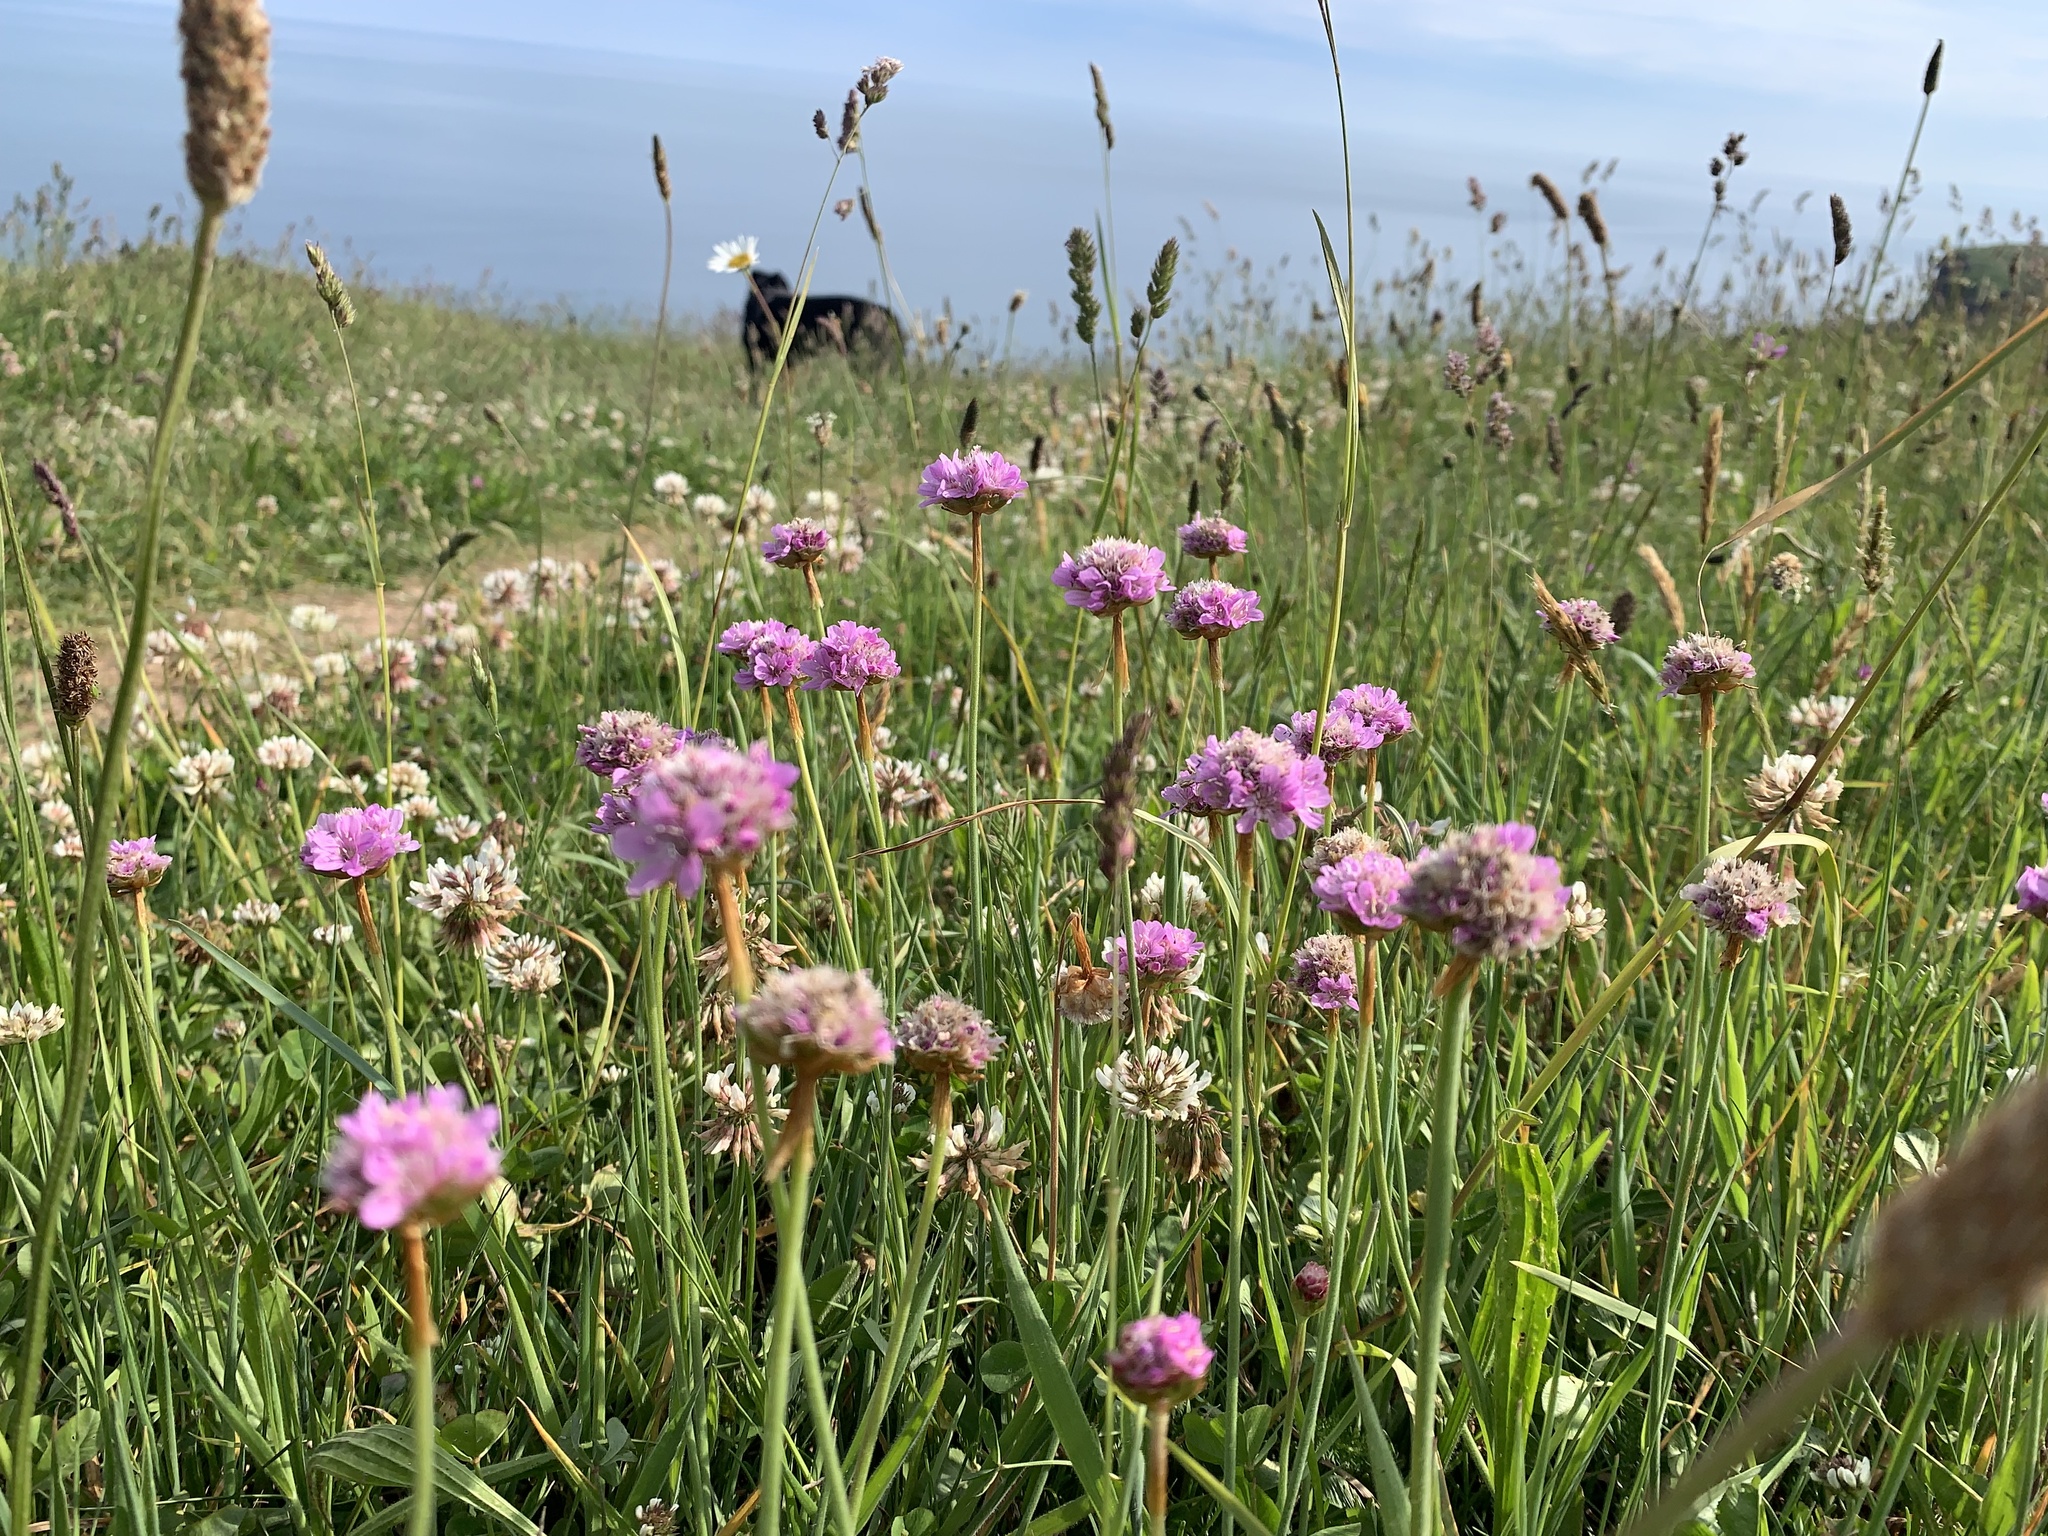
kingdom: Plantae
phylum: Tracheophyta
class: Magnoliopsida
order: Caryophyllales
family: Plumbaginaceae
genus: Armeria
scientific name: Armeria maritima
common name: Thrift
